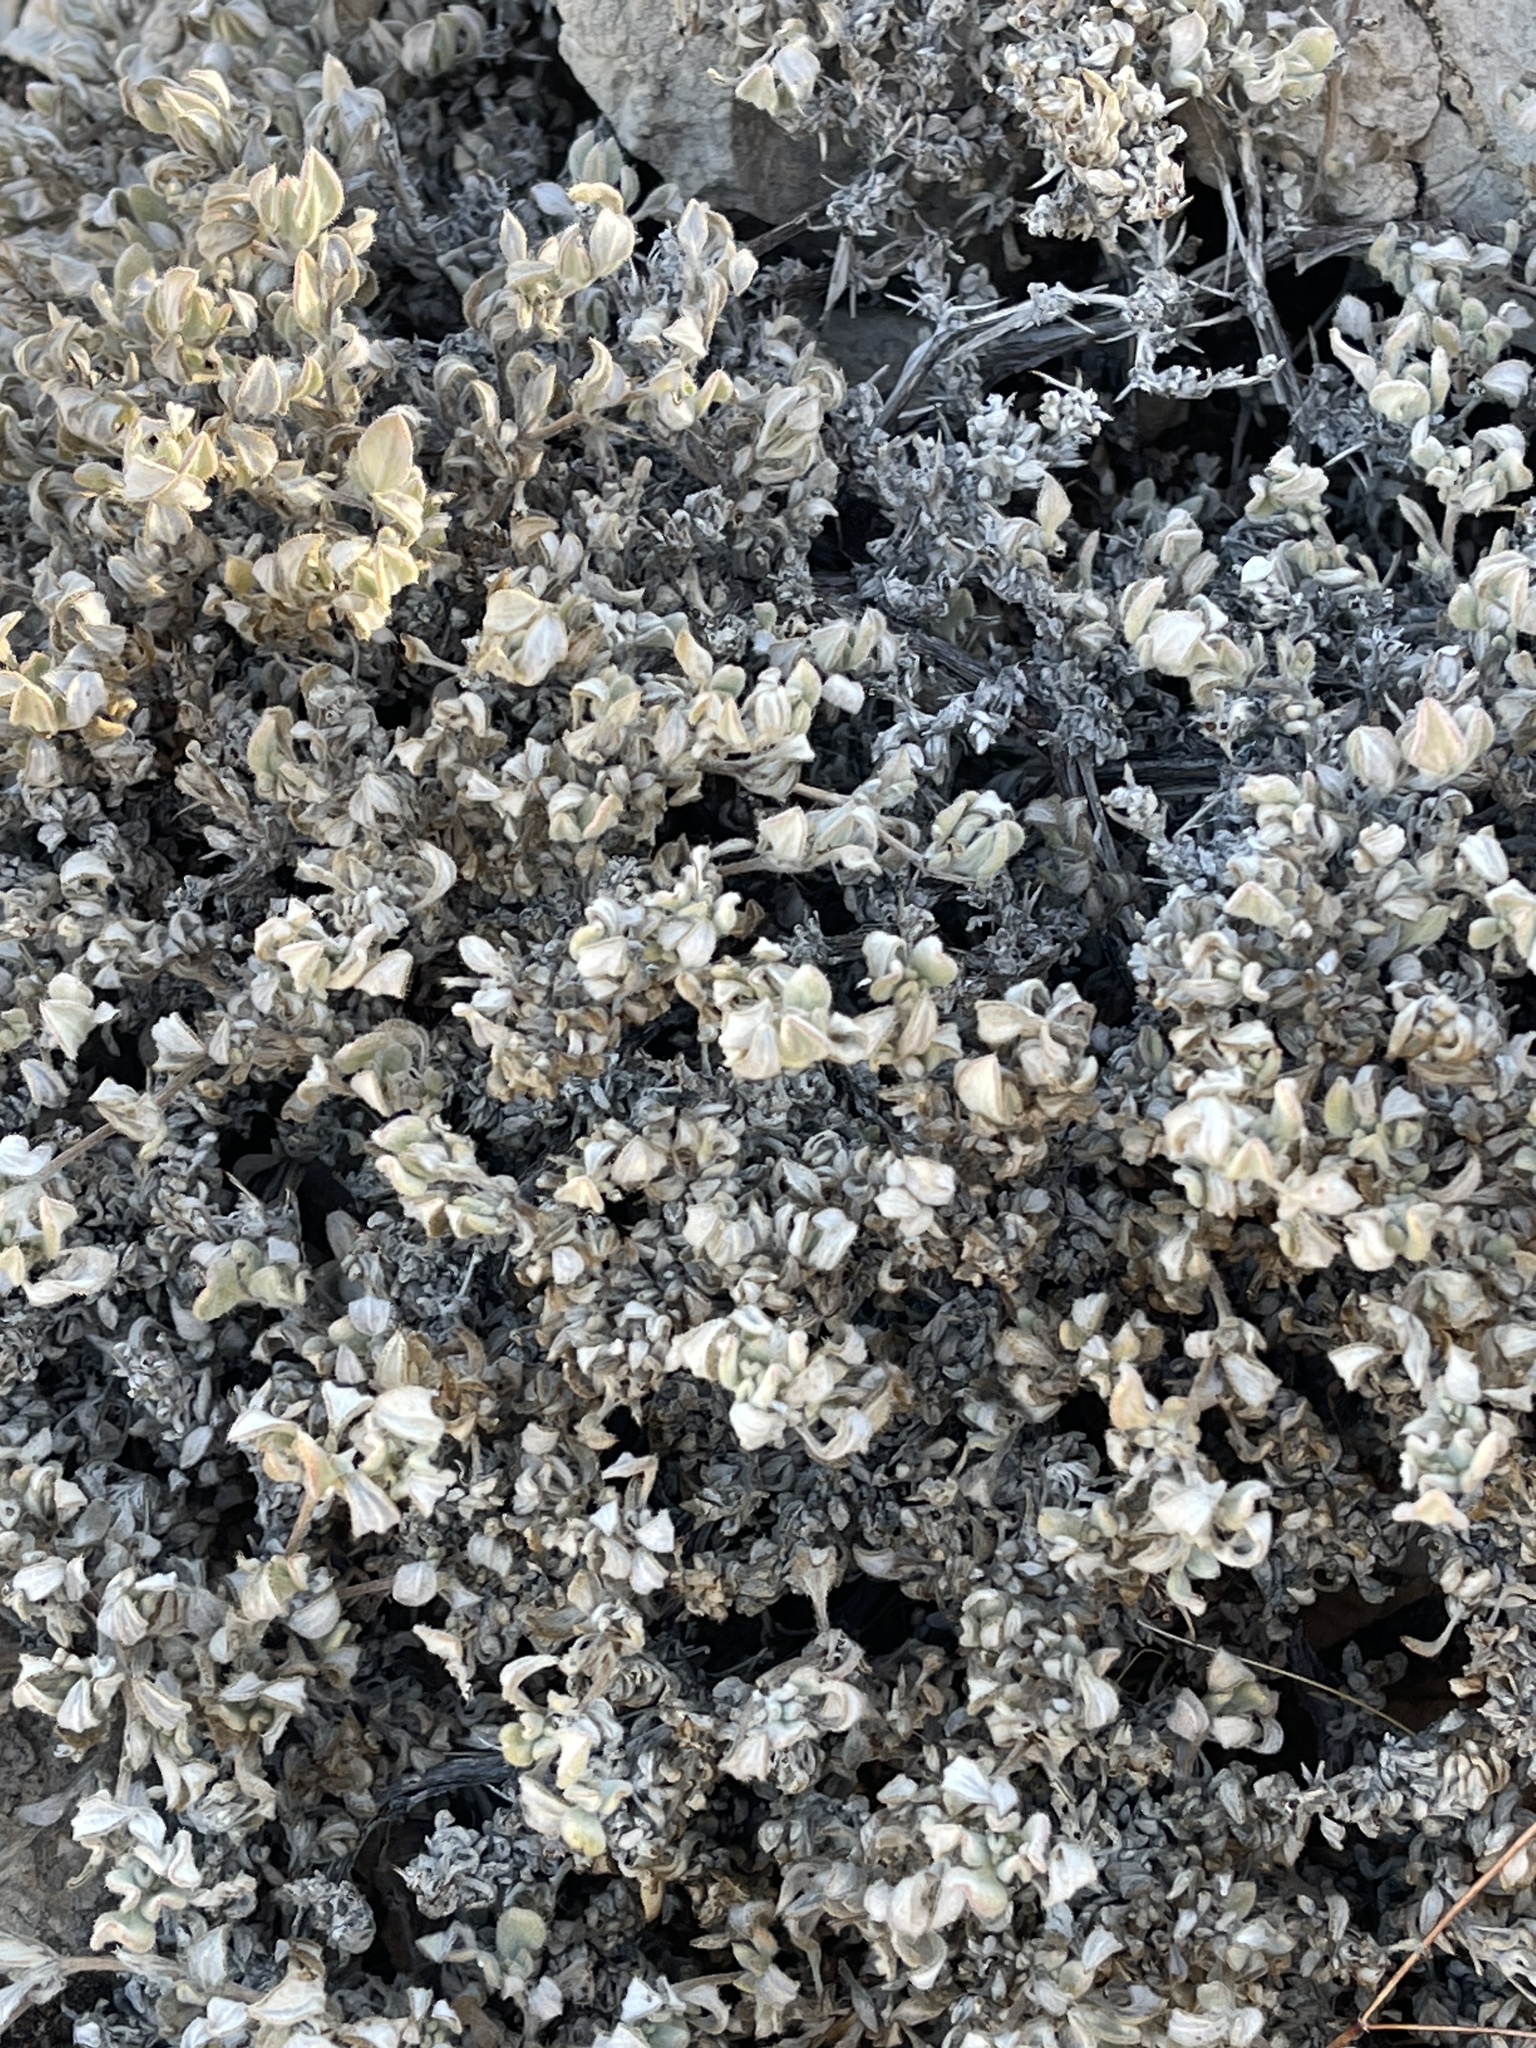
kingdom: Plantae
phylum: Tracheophyta
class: Magnoliopsida
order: Boraginales
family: Ehretiaceae
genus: Tiquilia
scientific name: Tiquilia canescens
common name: Hairy tiquilia
